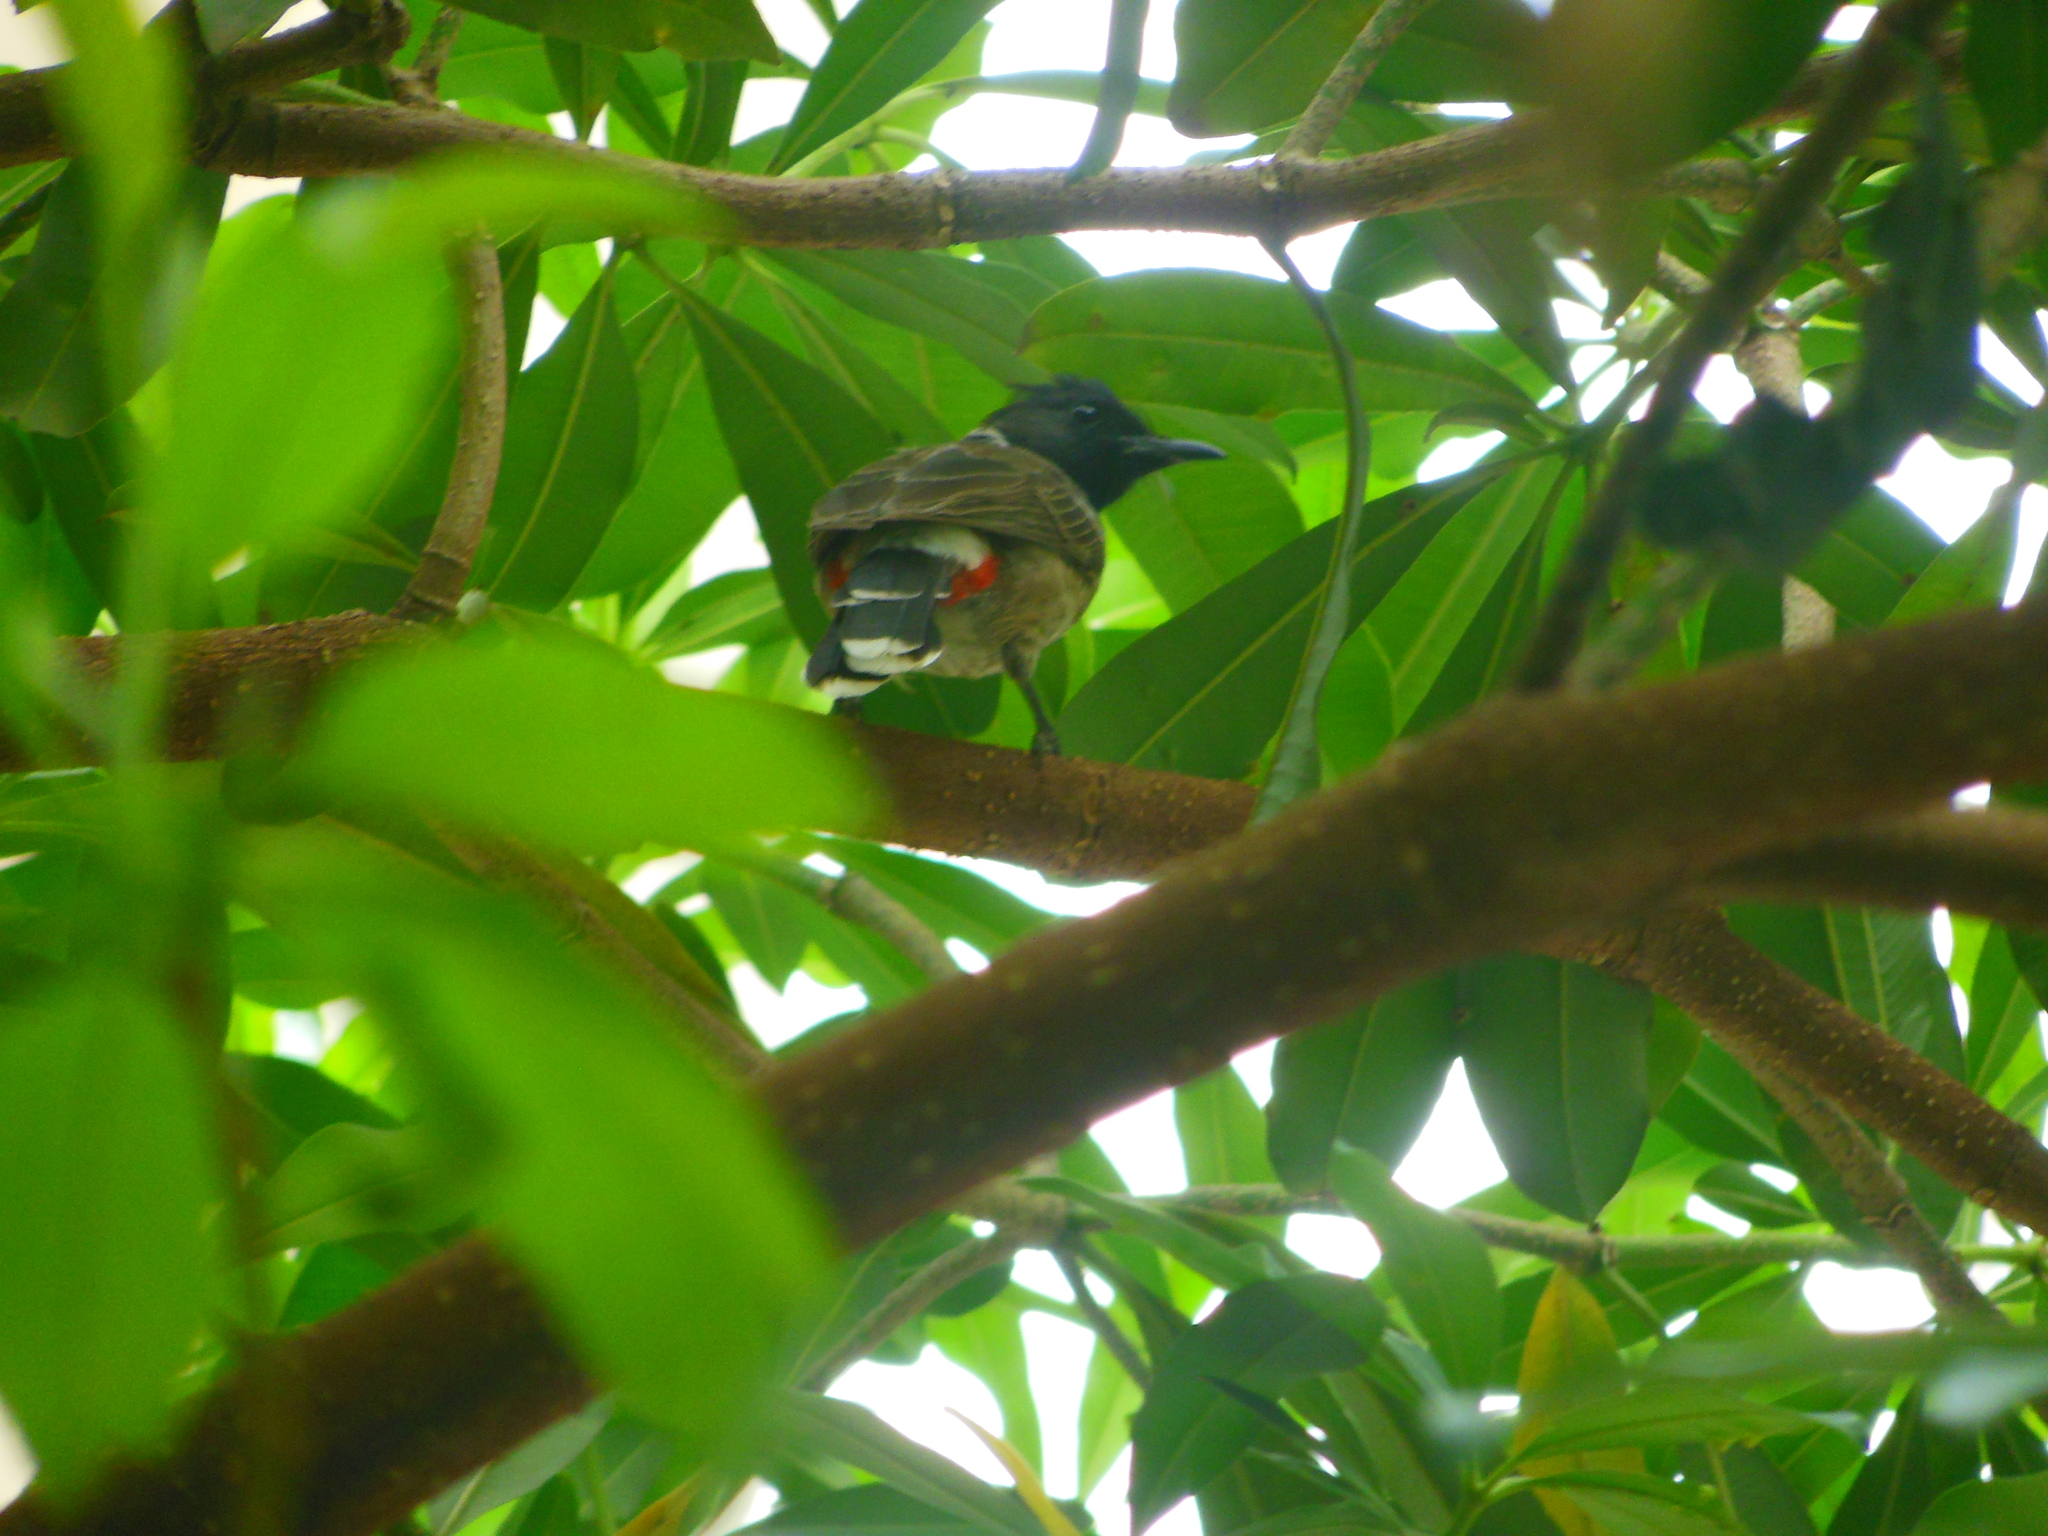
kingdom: Animalia
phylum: Chordata
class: Aves
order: Passeriformes
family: Pycnonotidae
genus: Pycnonotus
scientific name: Pycnonotus cafer
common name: Red-vented bulbul
